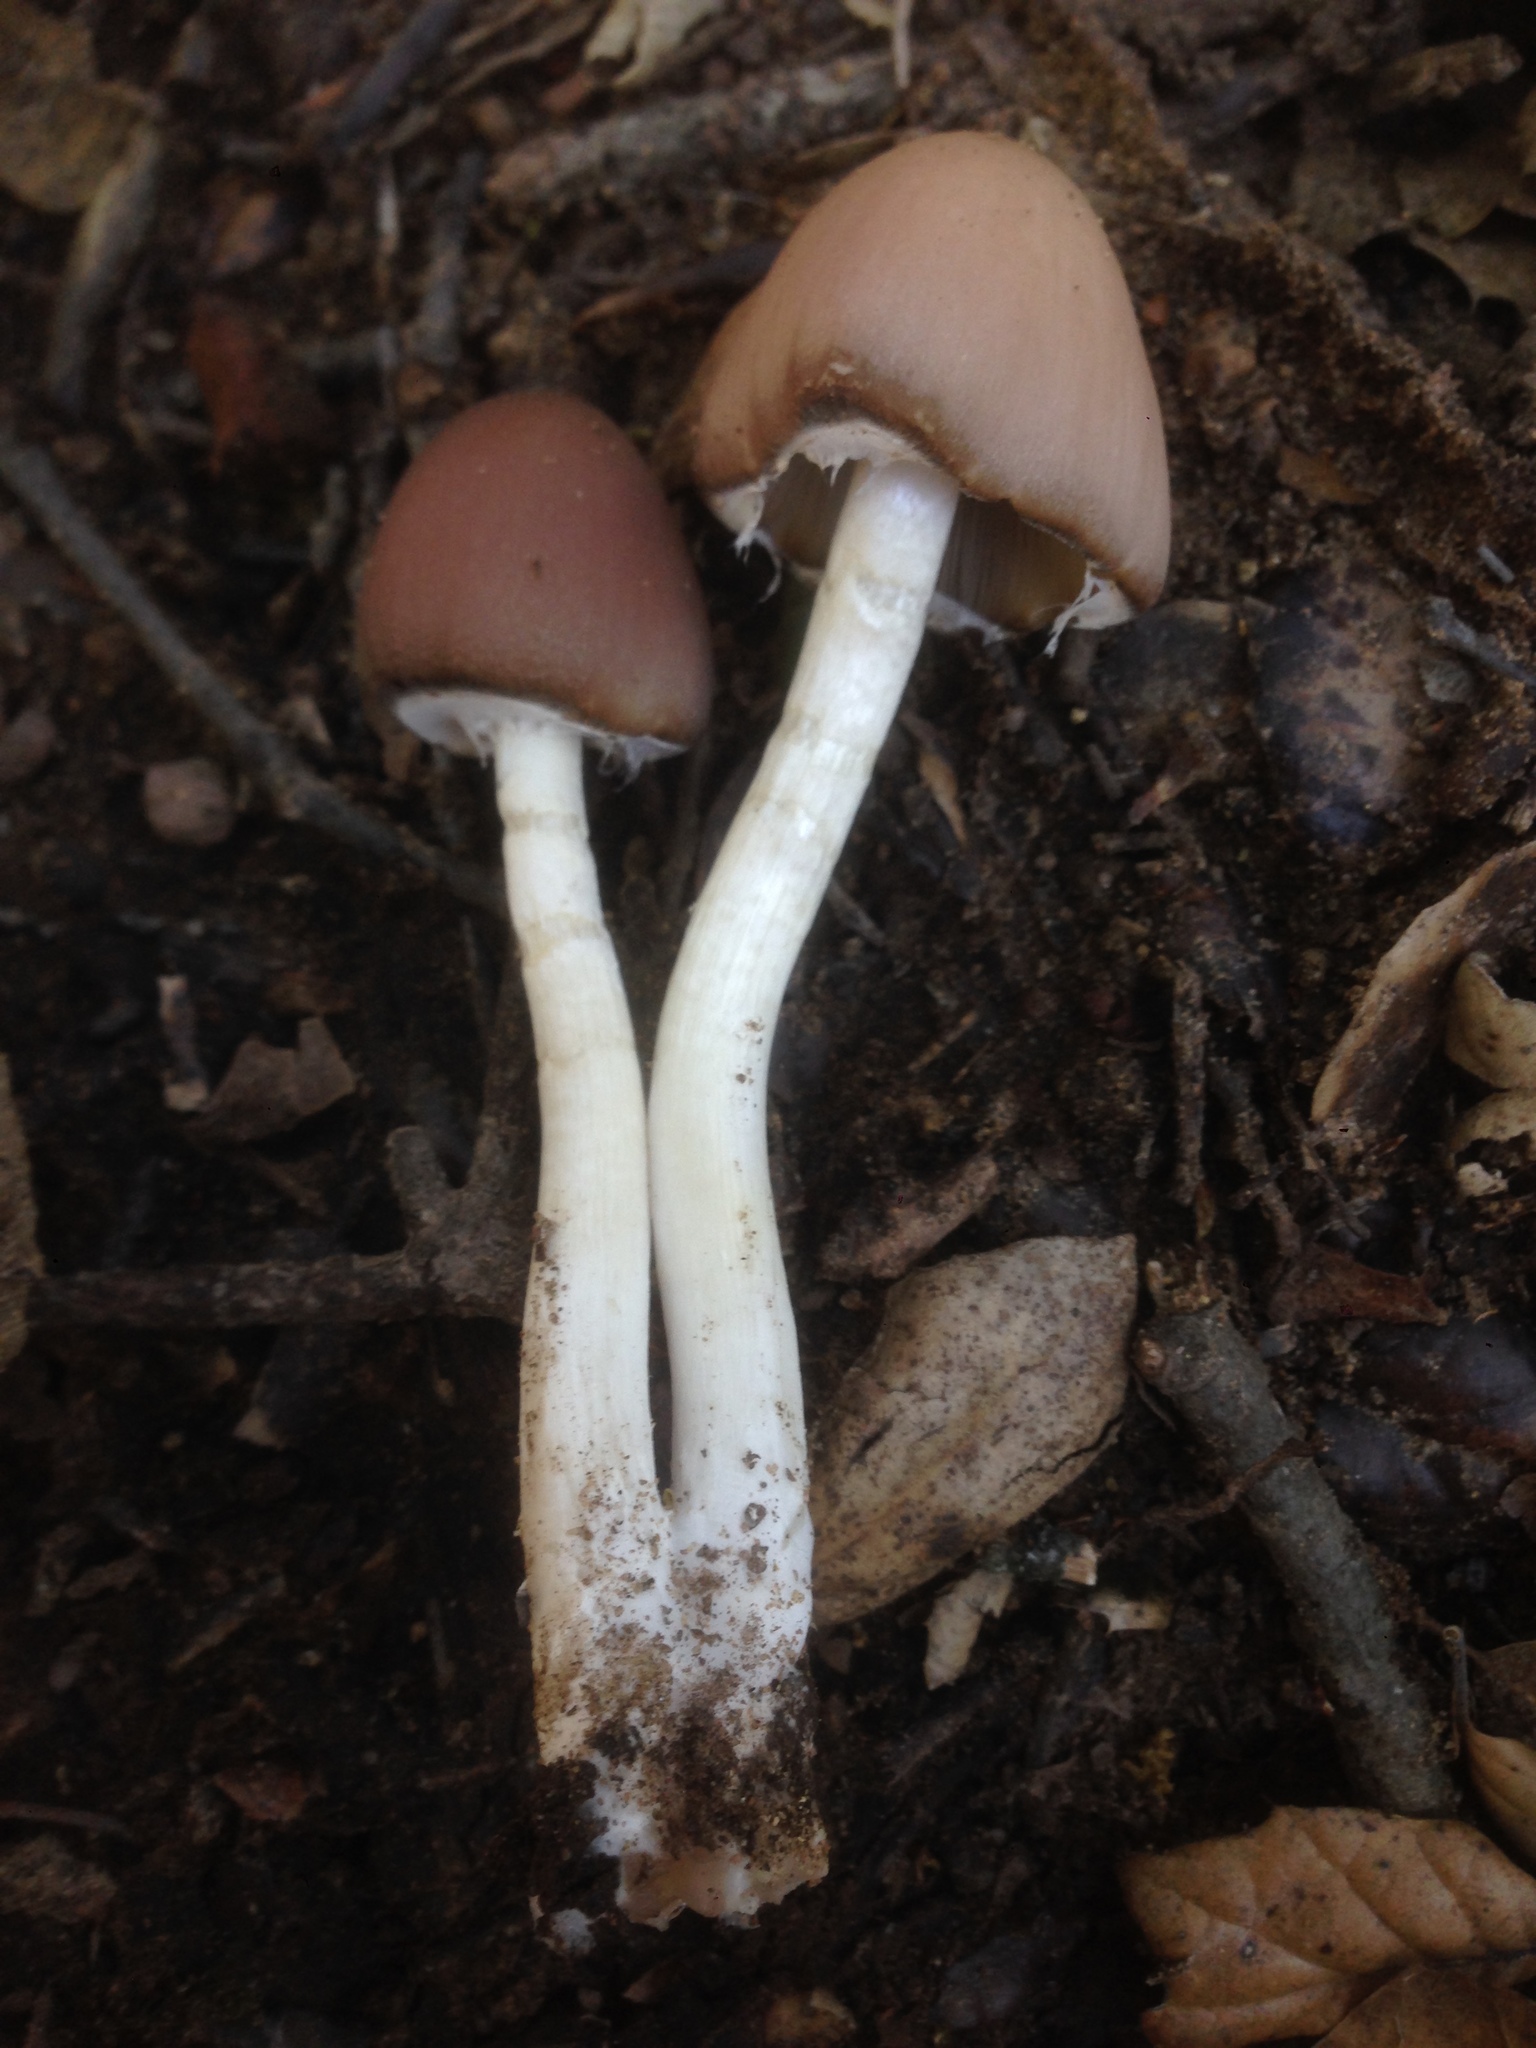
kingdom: Fungi
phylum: Basidiomycota
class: Agaricomycetes
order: Agaricales
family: Psathyrellaceae
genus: Psathyrella
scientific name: Psathyrella longipes
